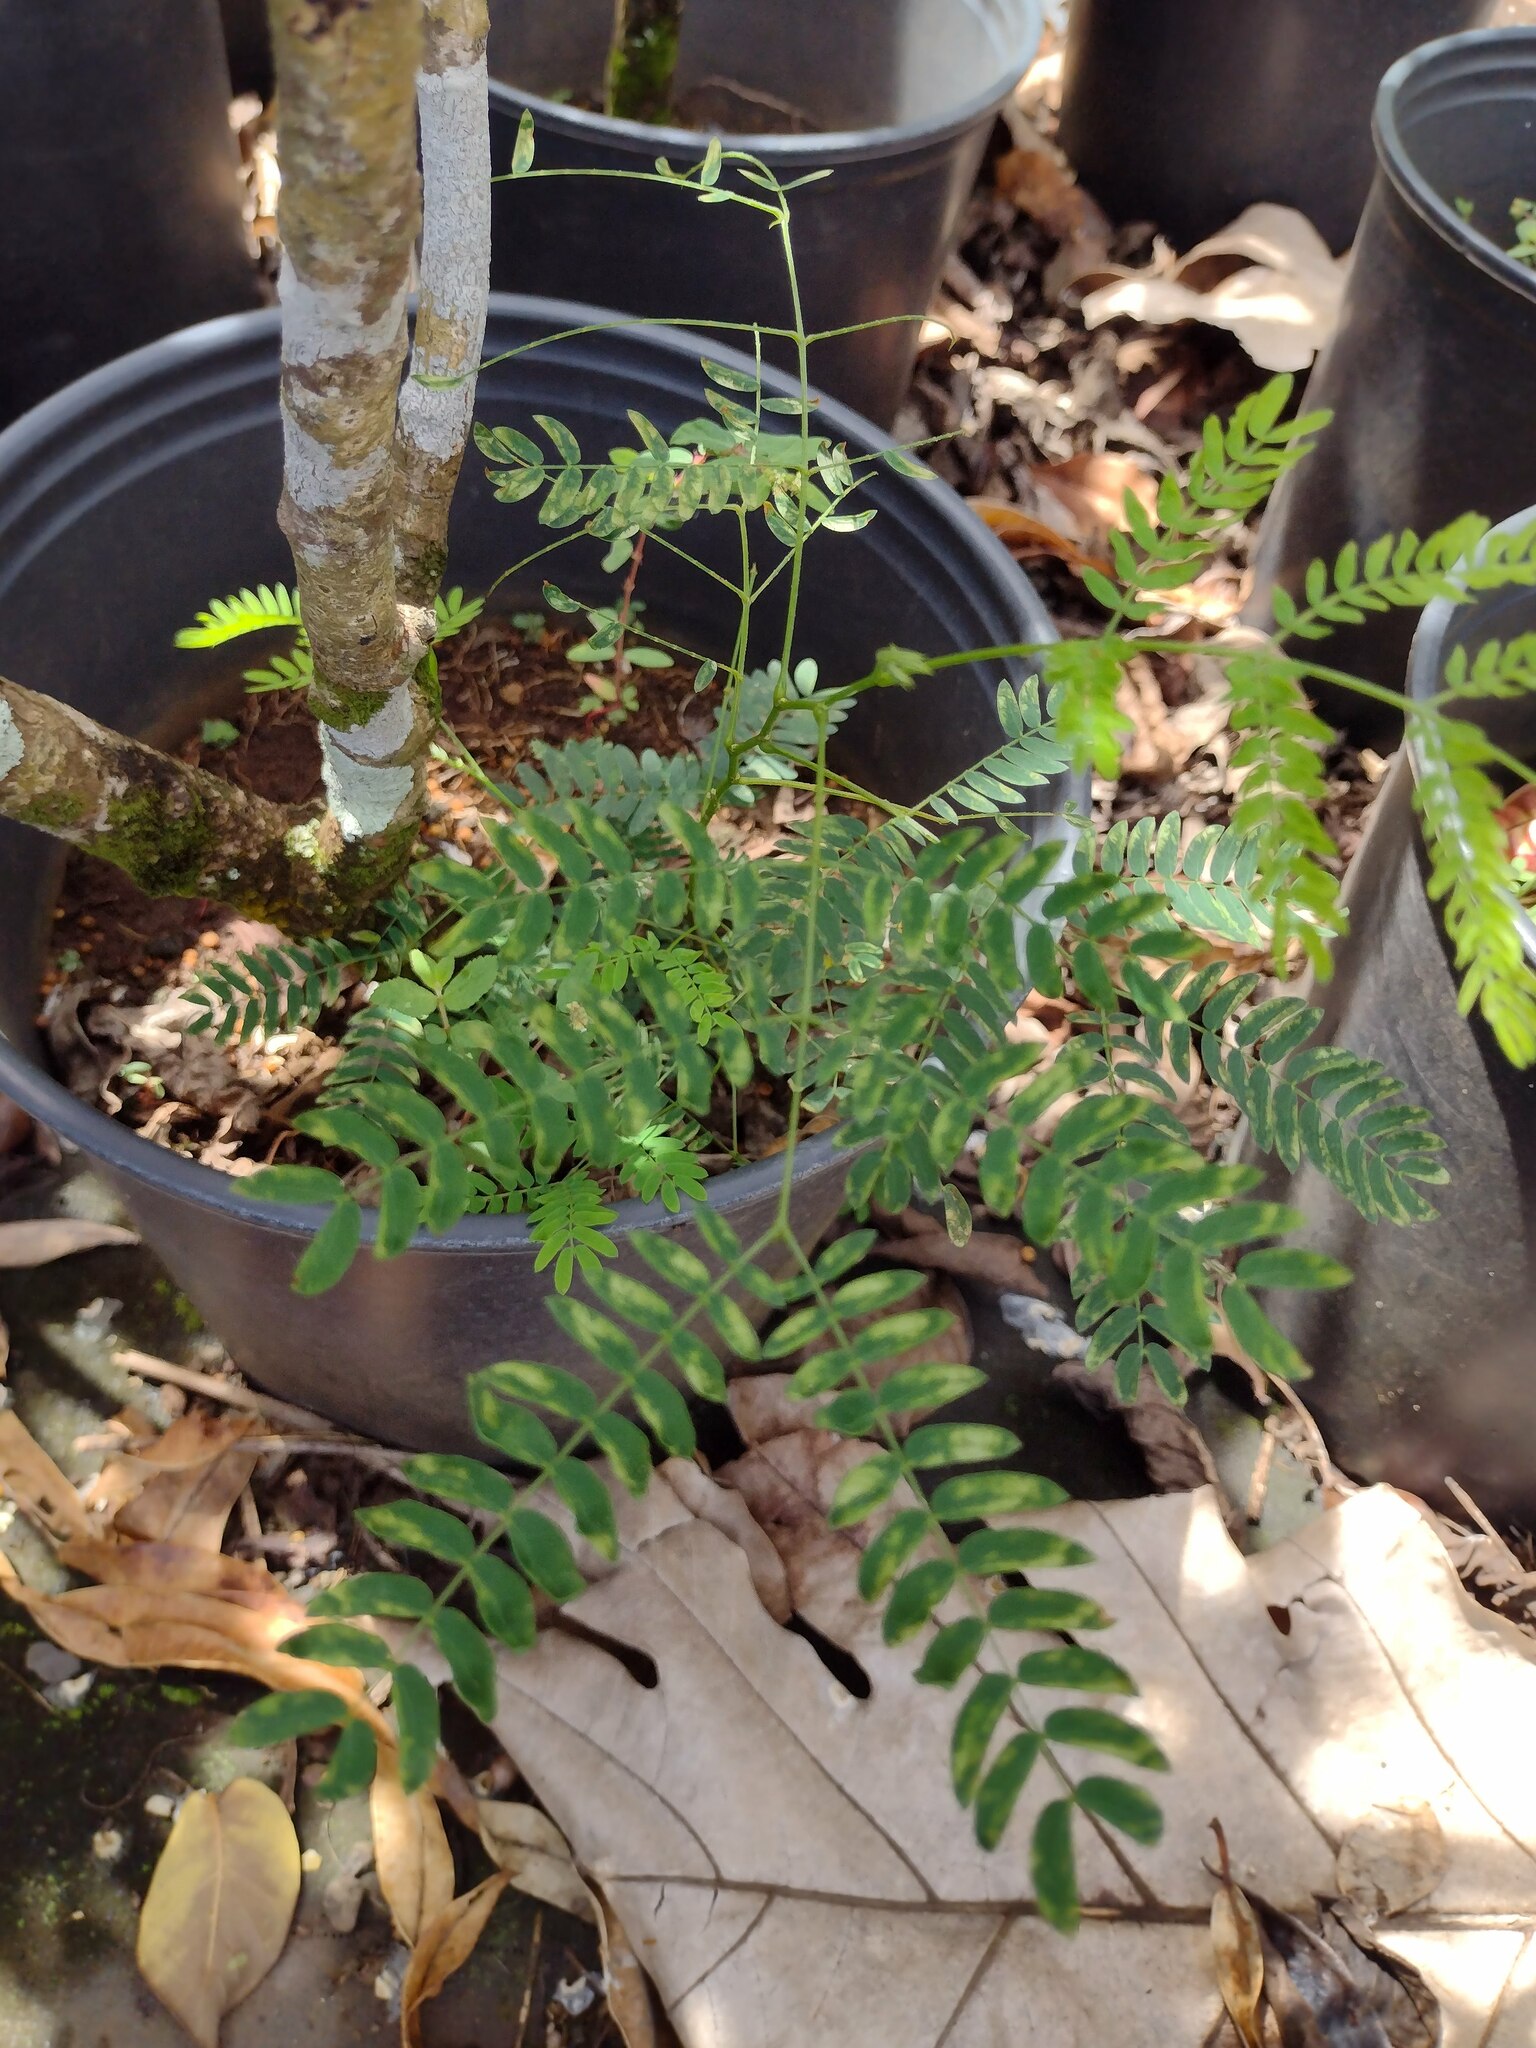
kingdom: Plantae
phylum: Tracheophyta
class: Magnoliopsida
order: Fabales
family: Fabaceae
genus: Leucaena
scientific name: Leucaena leucocephala
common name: White leadtree
